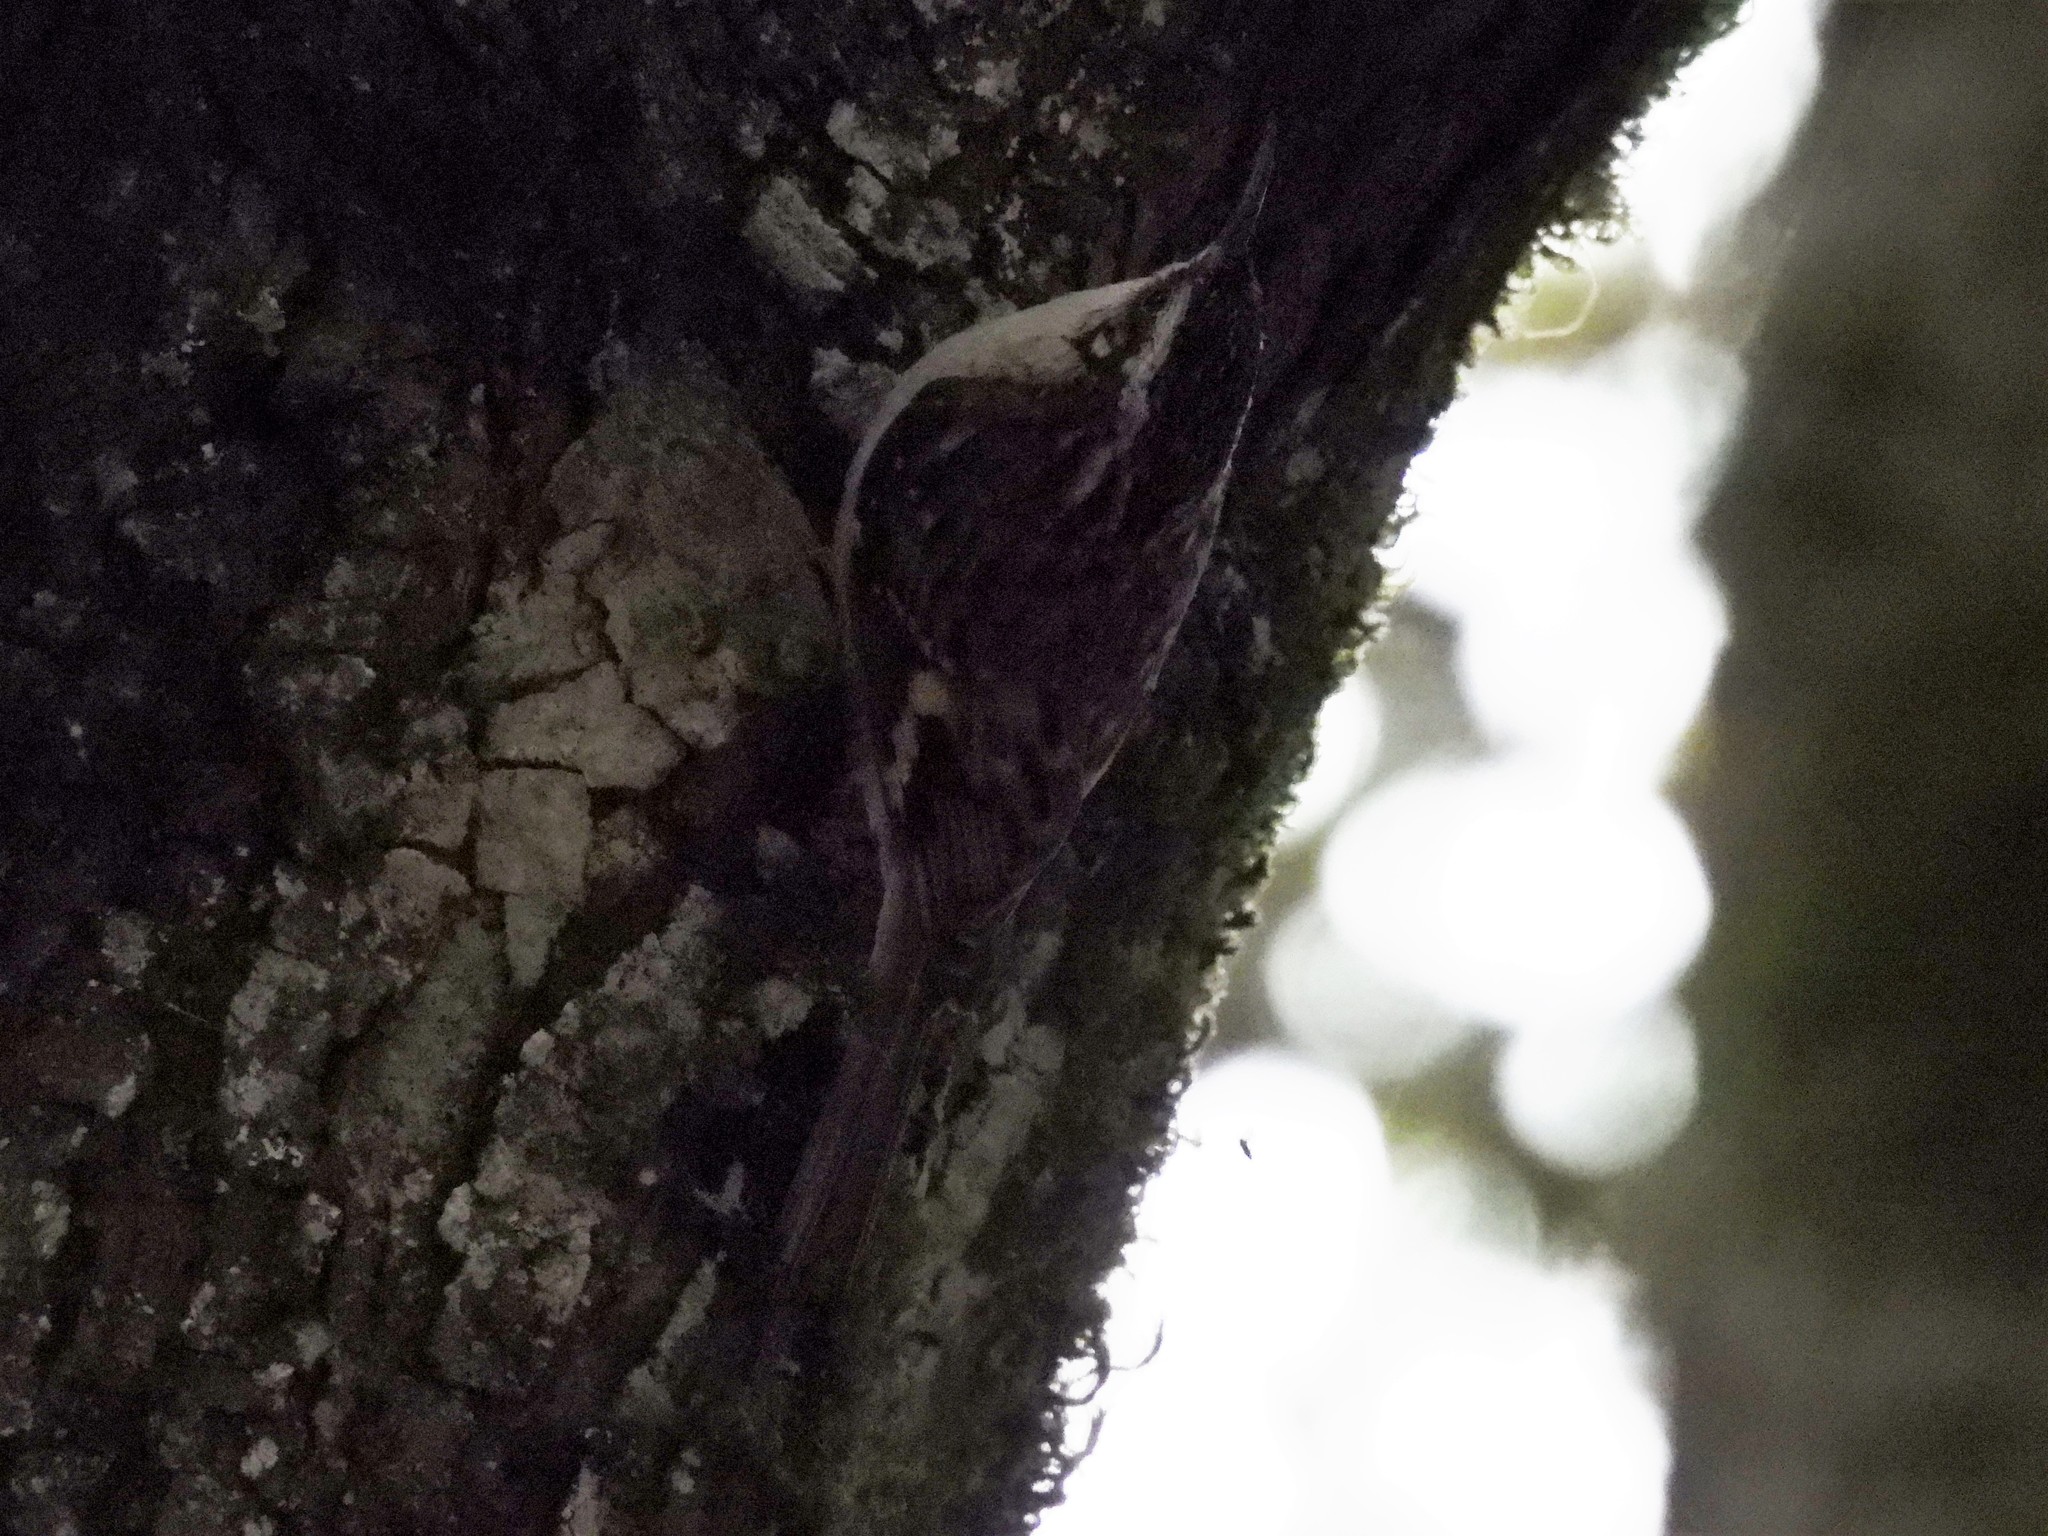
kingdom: Animalia
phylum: Chordata
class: Aves
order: Passeriformes
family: Certhiidae
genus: Certhia
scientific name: Certhia americana
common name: Brown creeper
